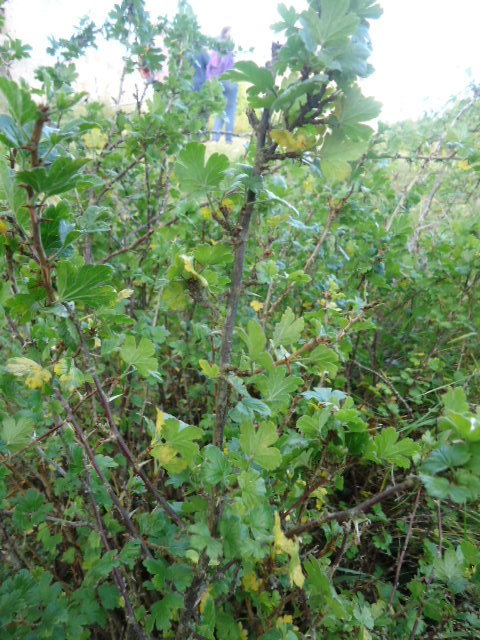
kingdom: Plantae
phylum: Tracheophyta
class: Magnoliopsida
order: Saxifragales
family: Grossulariaceae
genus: Ribes
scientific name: Ribes uva-crispa
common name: Gooseberry
